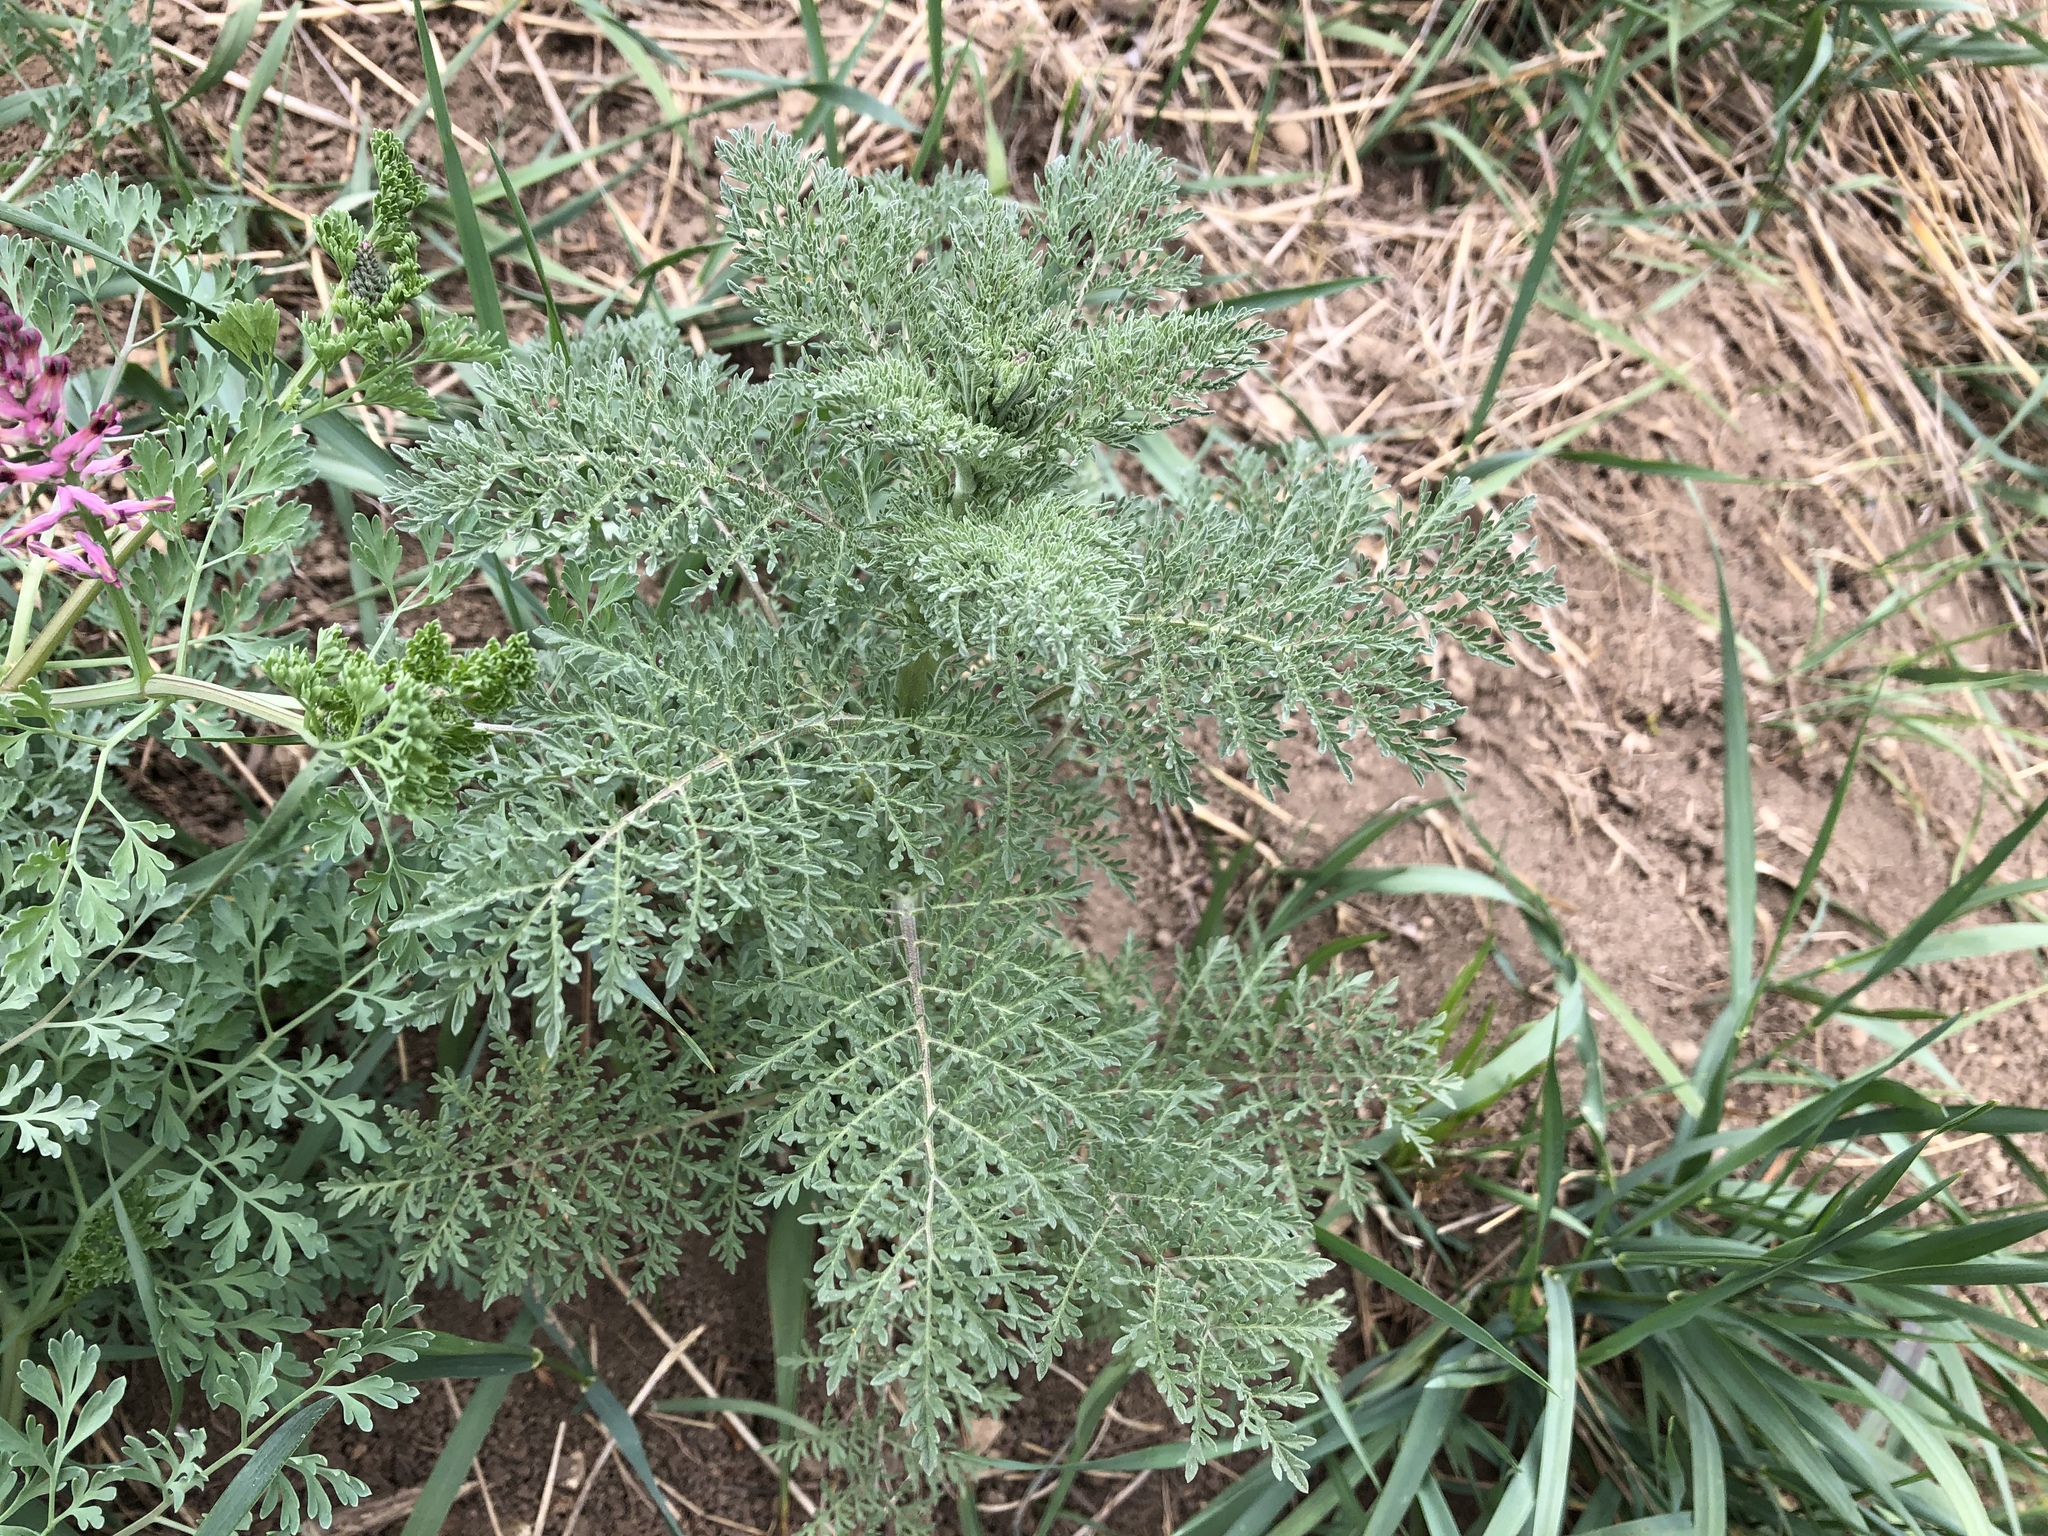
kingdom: Plantae
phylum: Tracheophyta
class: Magnoliopsida
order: Brassicales
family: Brassicaceae
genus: Descurainia
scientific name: Descurainia sophia
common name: Flixweed
